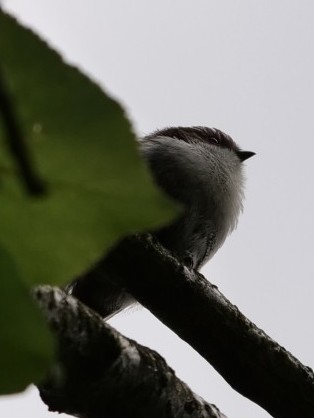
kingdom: Animalia
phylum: Chordata
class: Aves
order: Passeriformes
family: Aegithalidae
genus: Aegithalos
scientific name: Aegithalos caudatus
